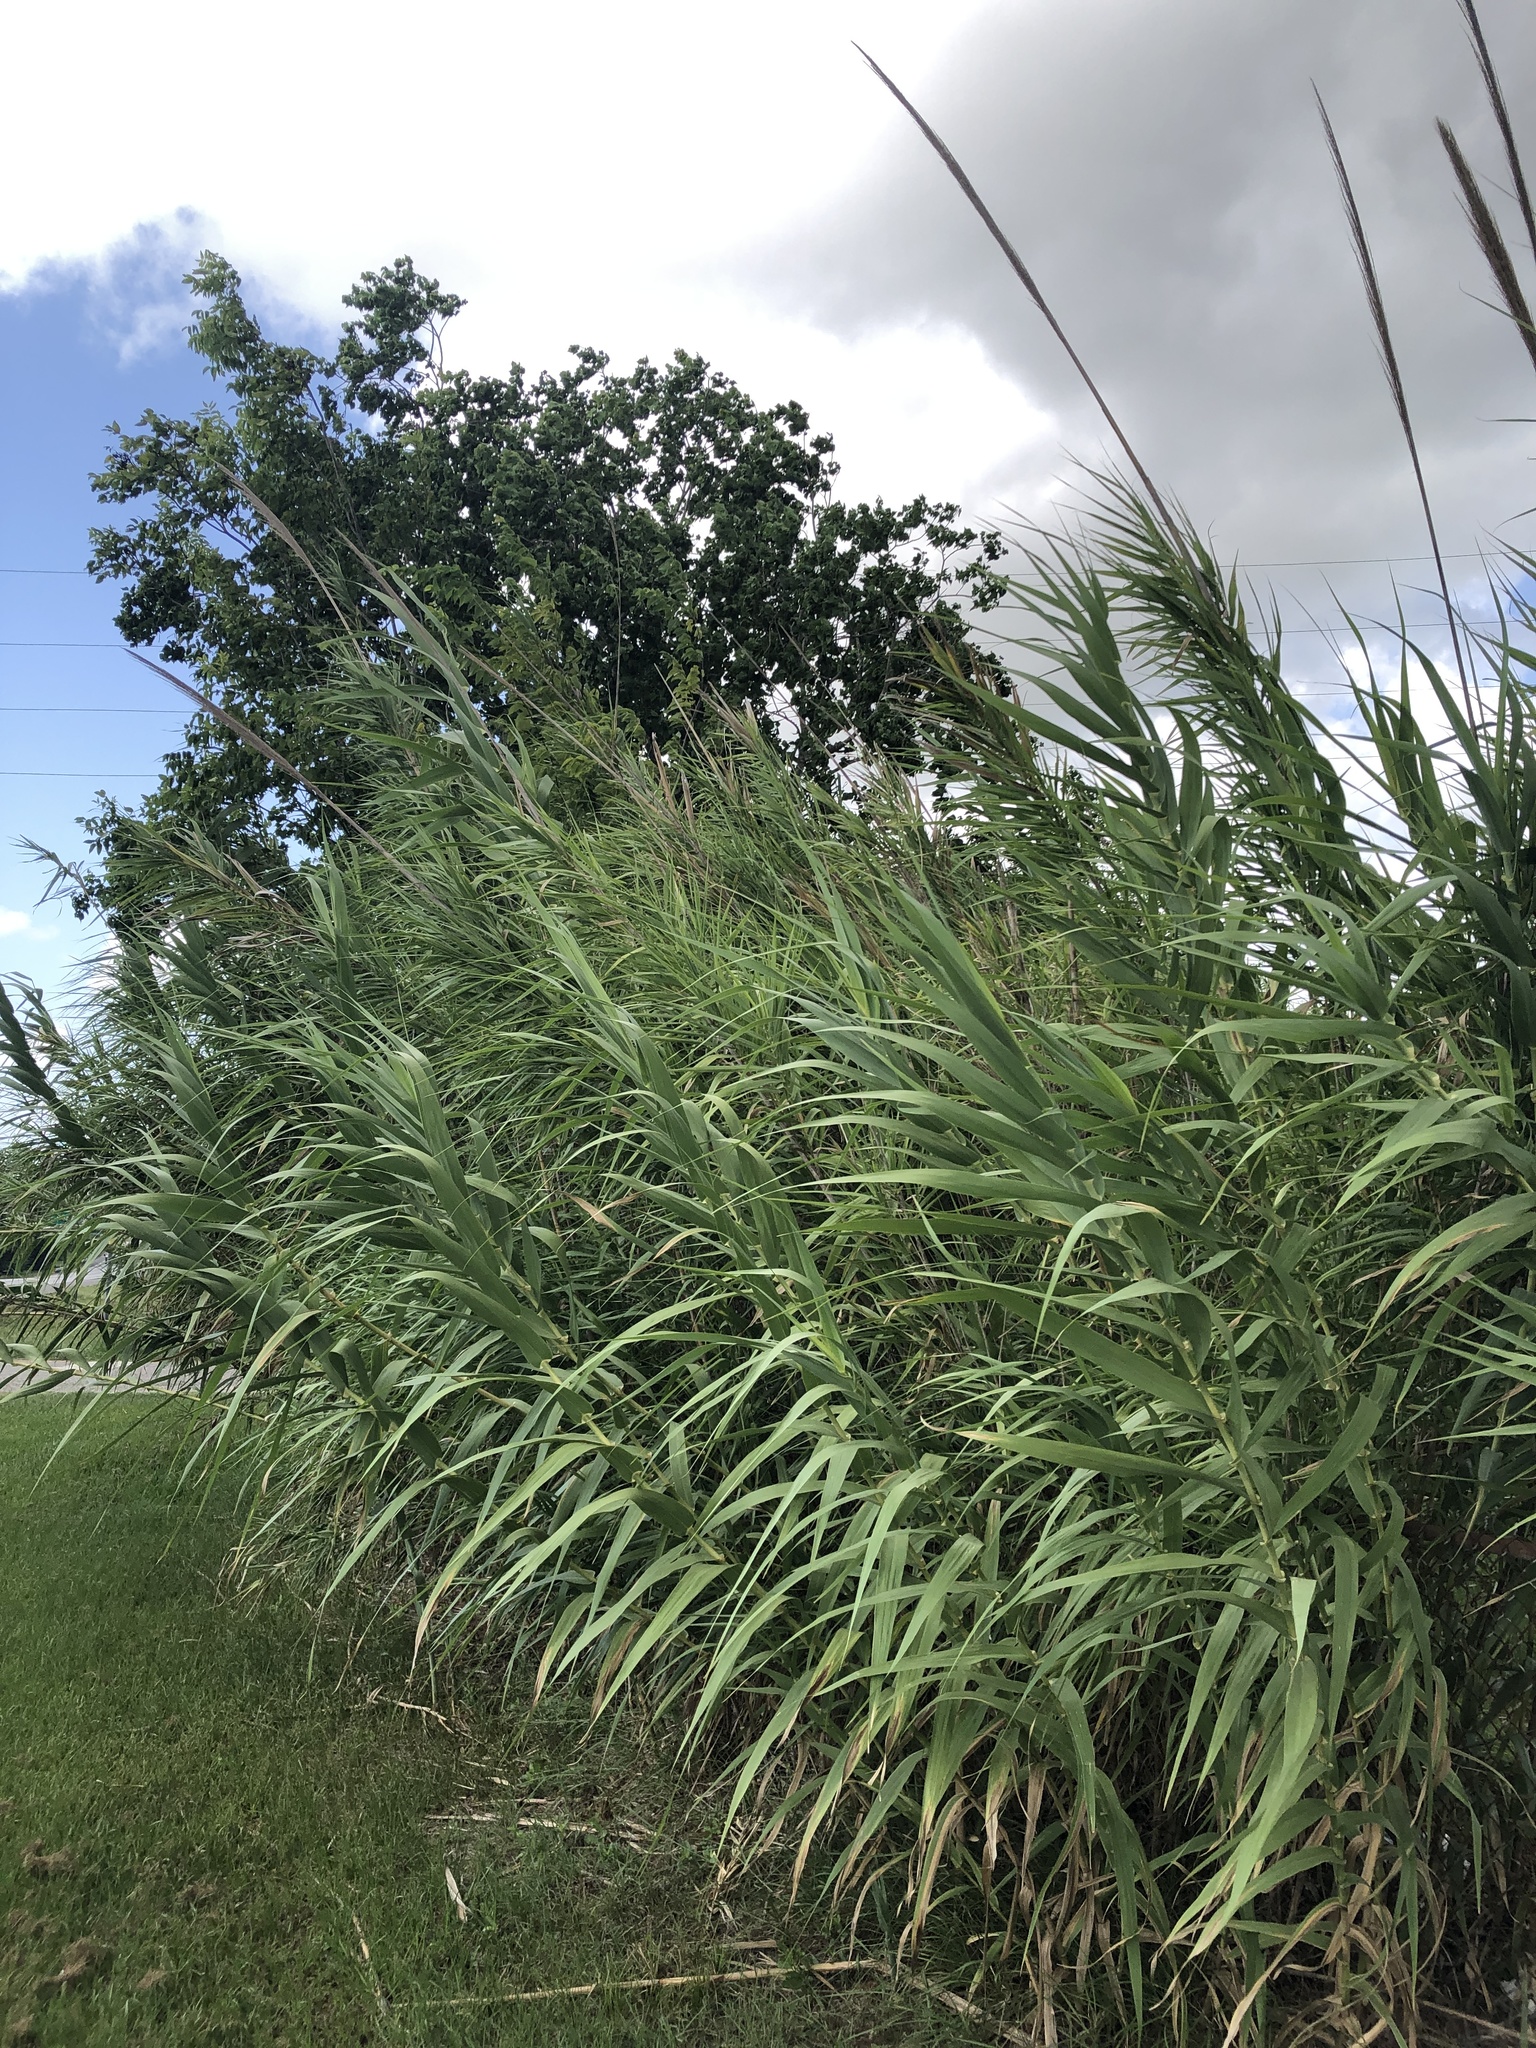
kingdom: Plantae
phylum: Tracheophyta
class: Liliopsida
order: Poales
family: Poaceae
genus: Arundo
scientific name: Arundo donax
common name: Giant reed
